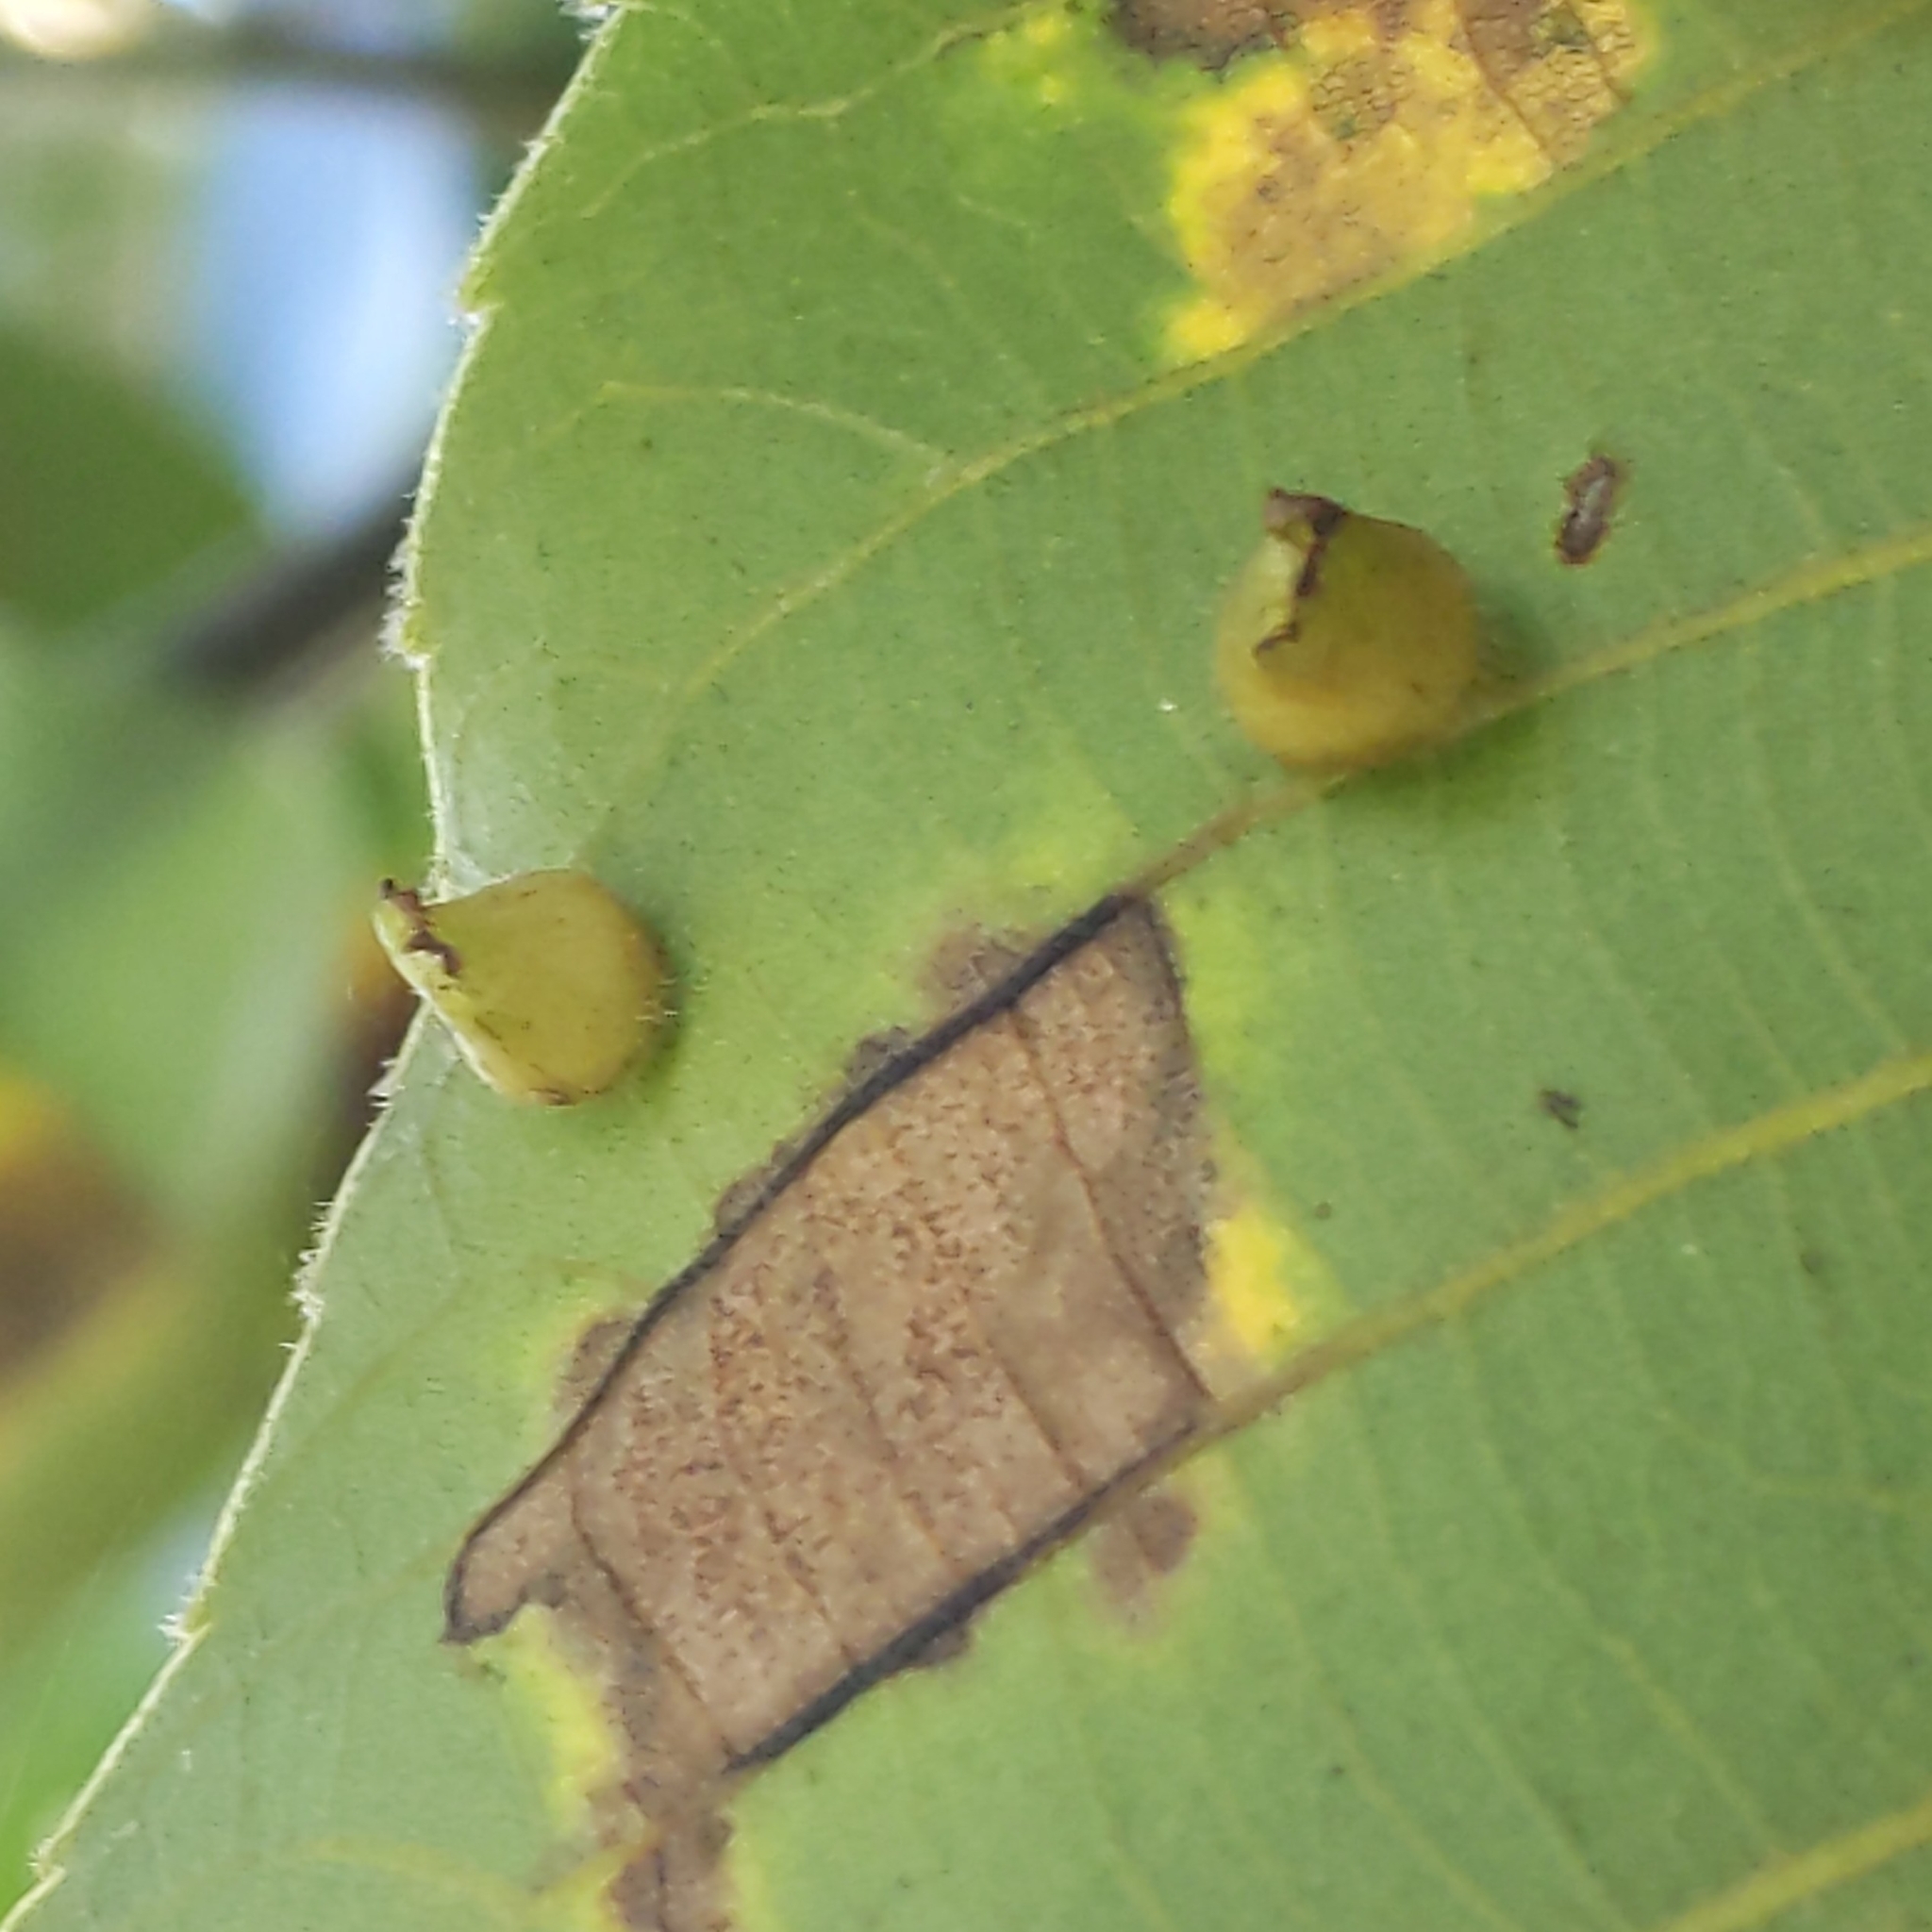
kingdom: Animalia
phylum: Arthropoda
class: Insecta
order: Diptera
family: Cecidomyiidae
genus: Caryomyia
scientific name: Caryomyia inanis
